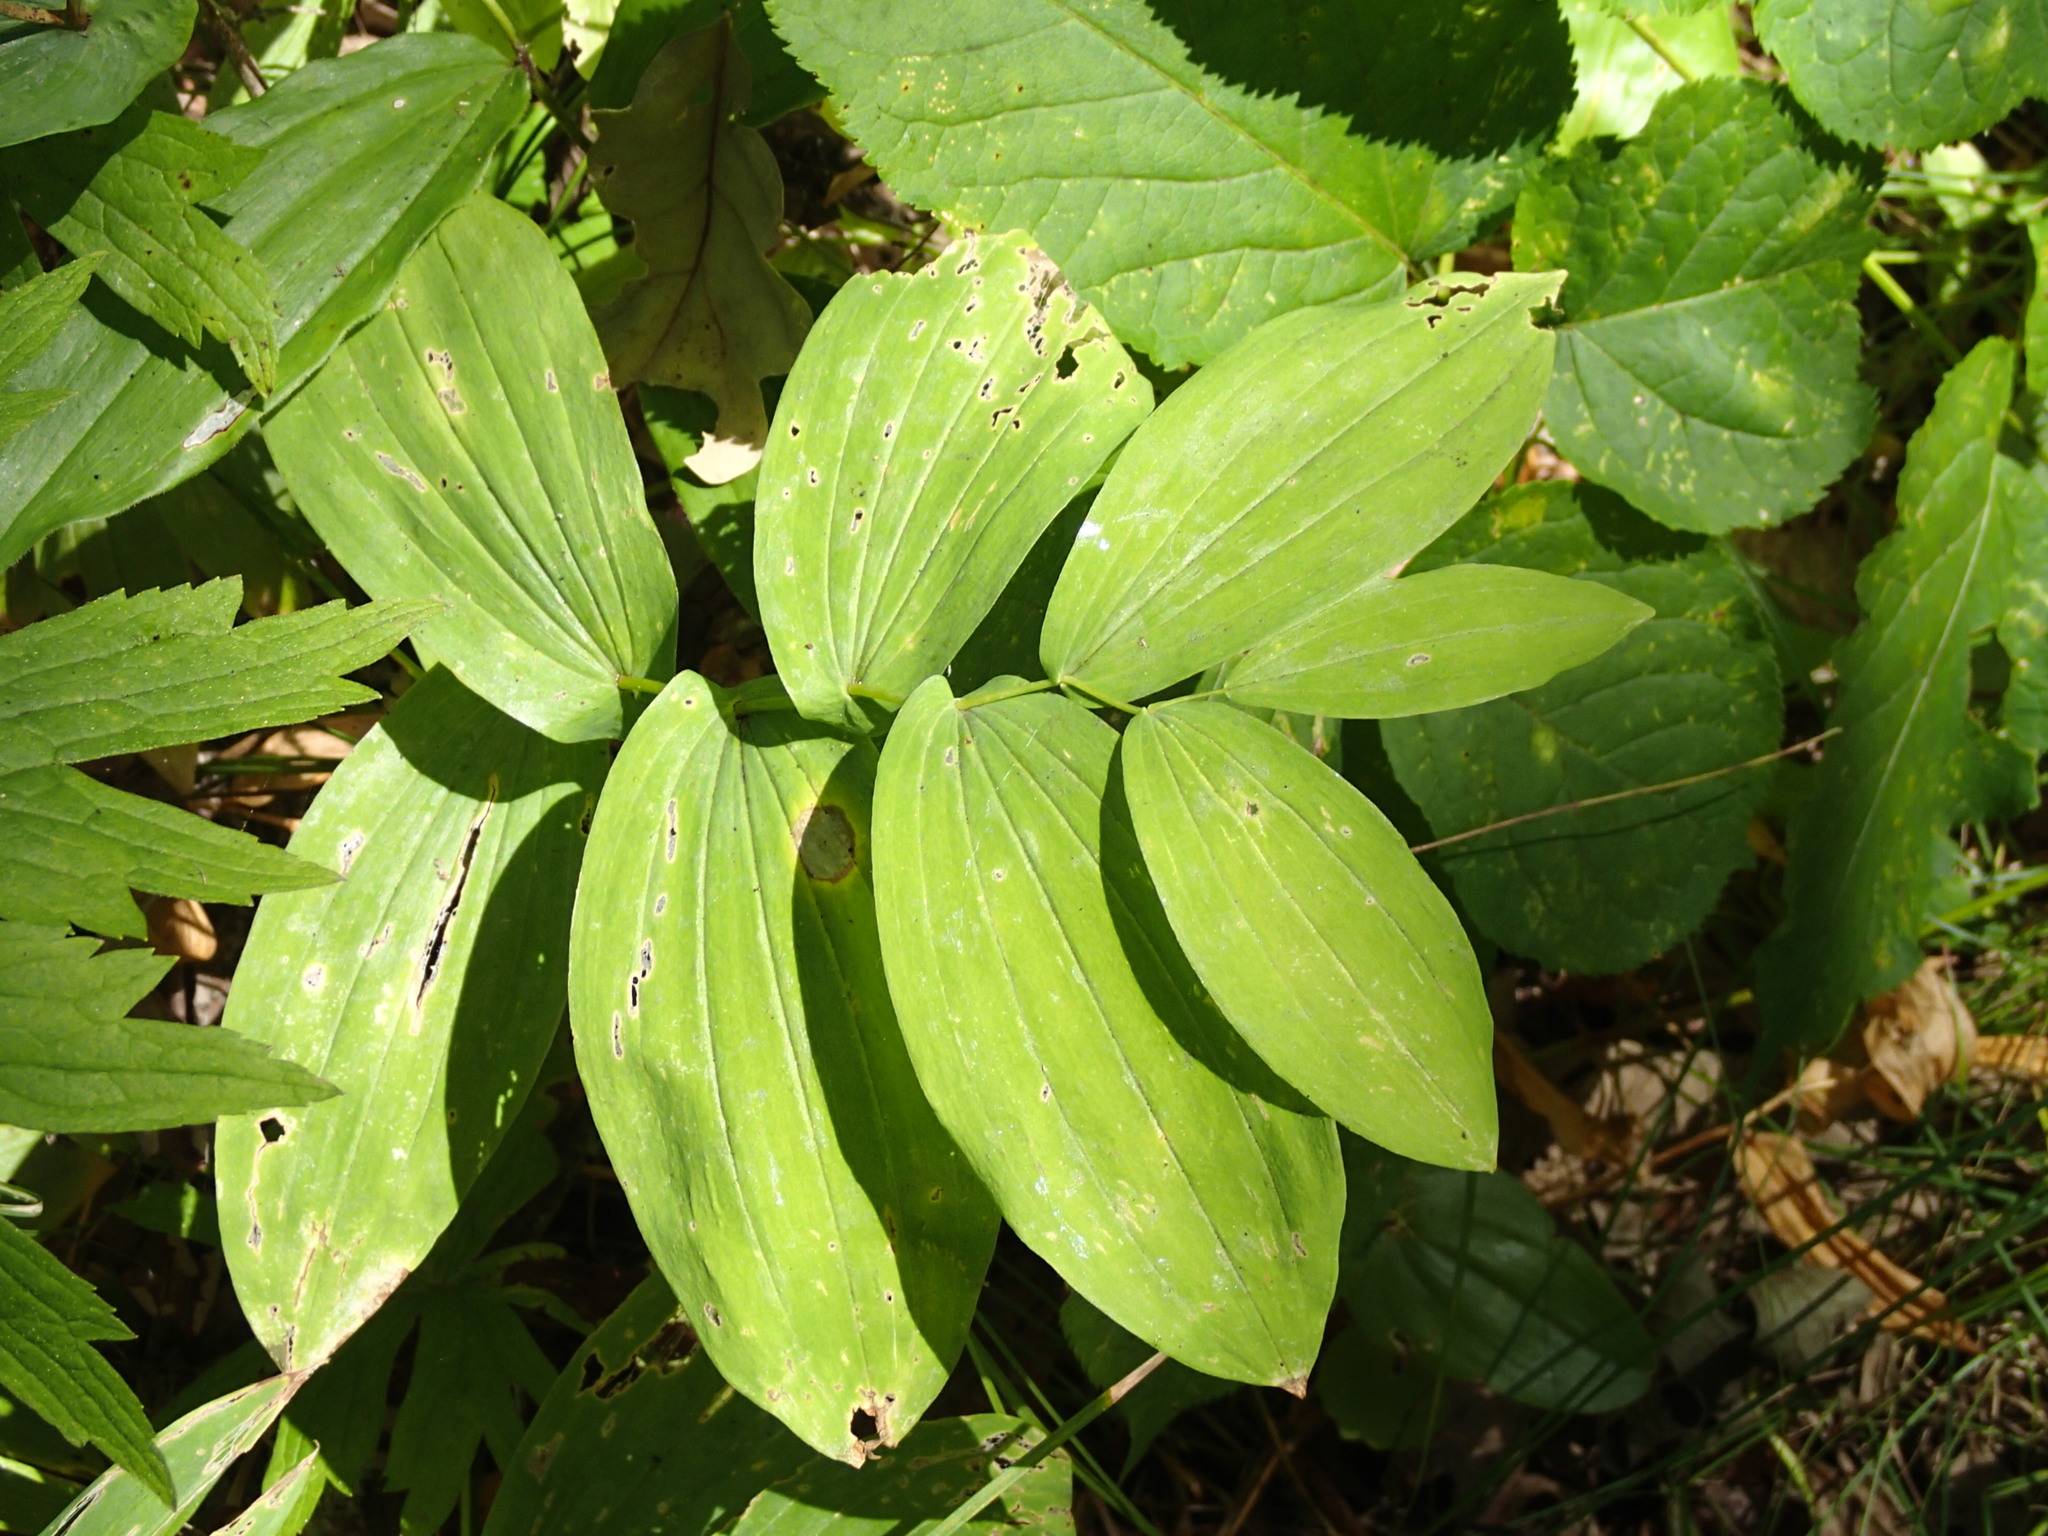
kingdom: Plantae
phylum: Tracheophyta
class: Liliopsida
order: Liliales
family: Colchicaceae
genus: Uvularia
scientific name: Uvularia grandiflora
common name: Bellwort
